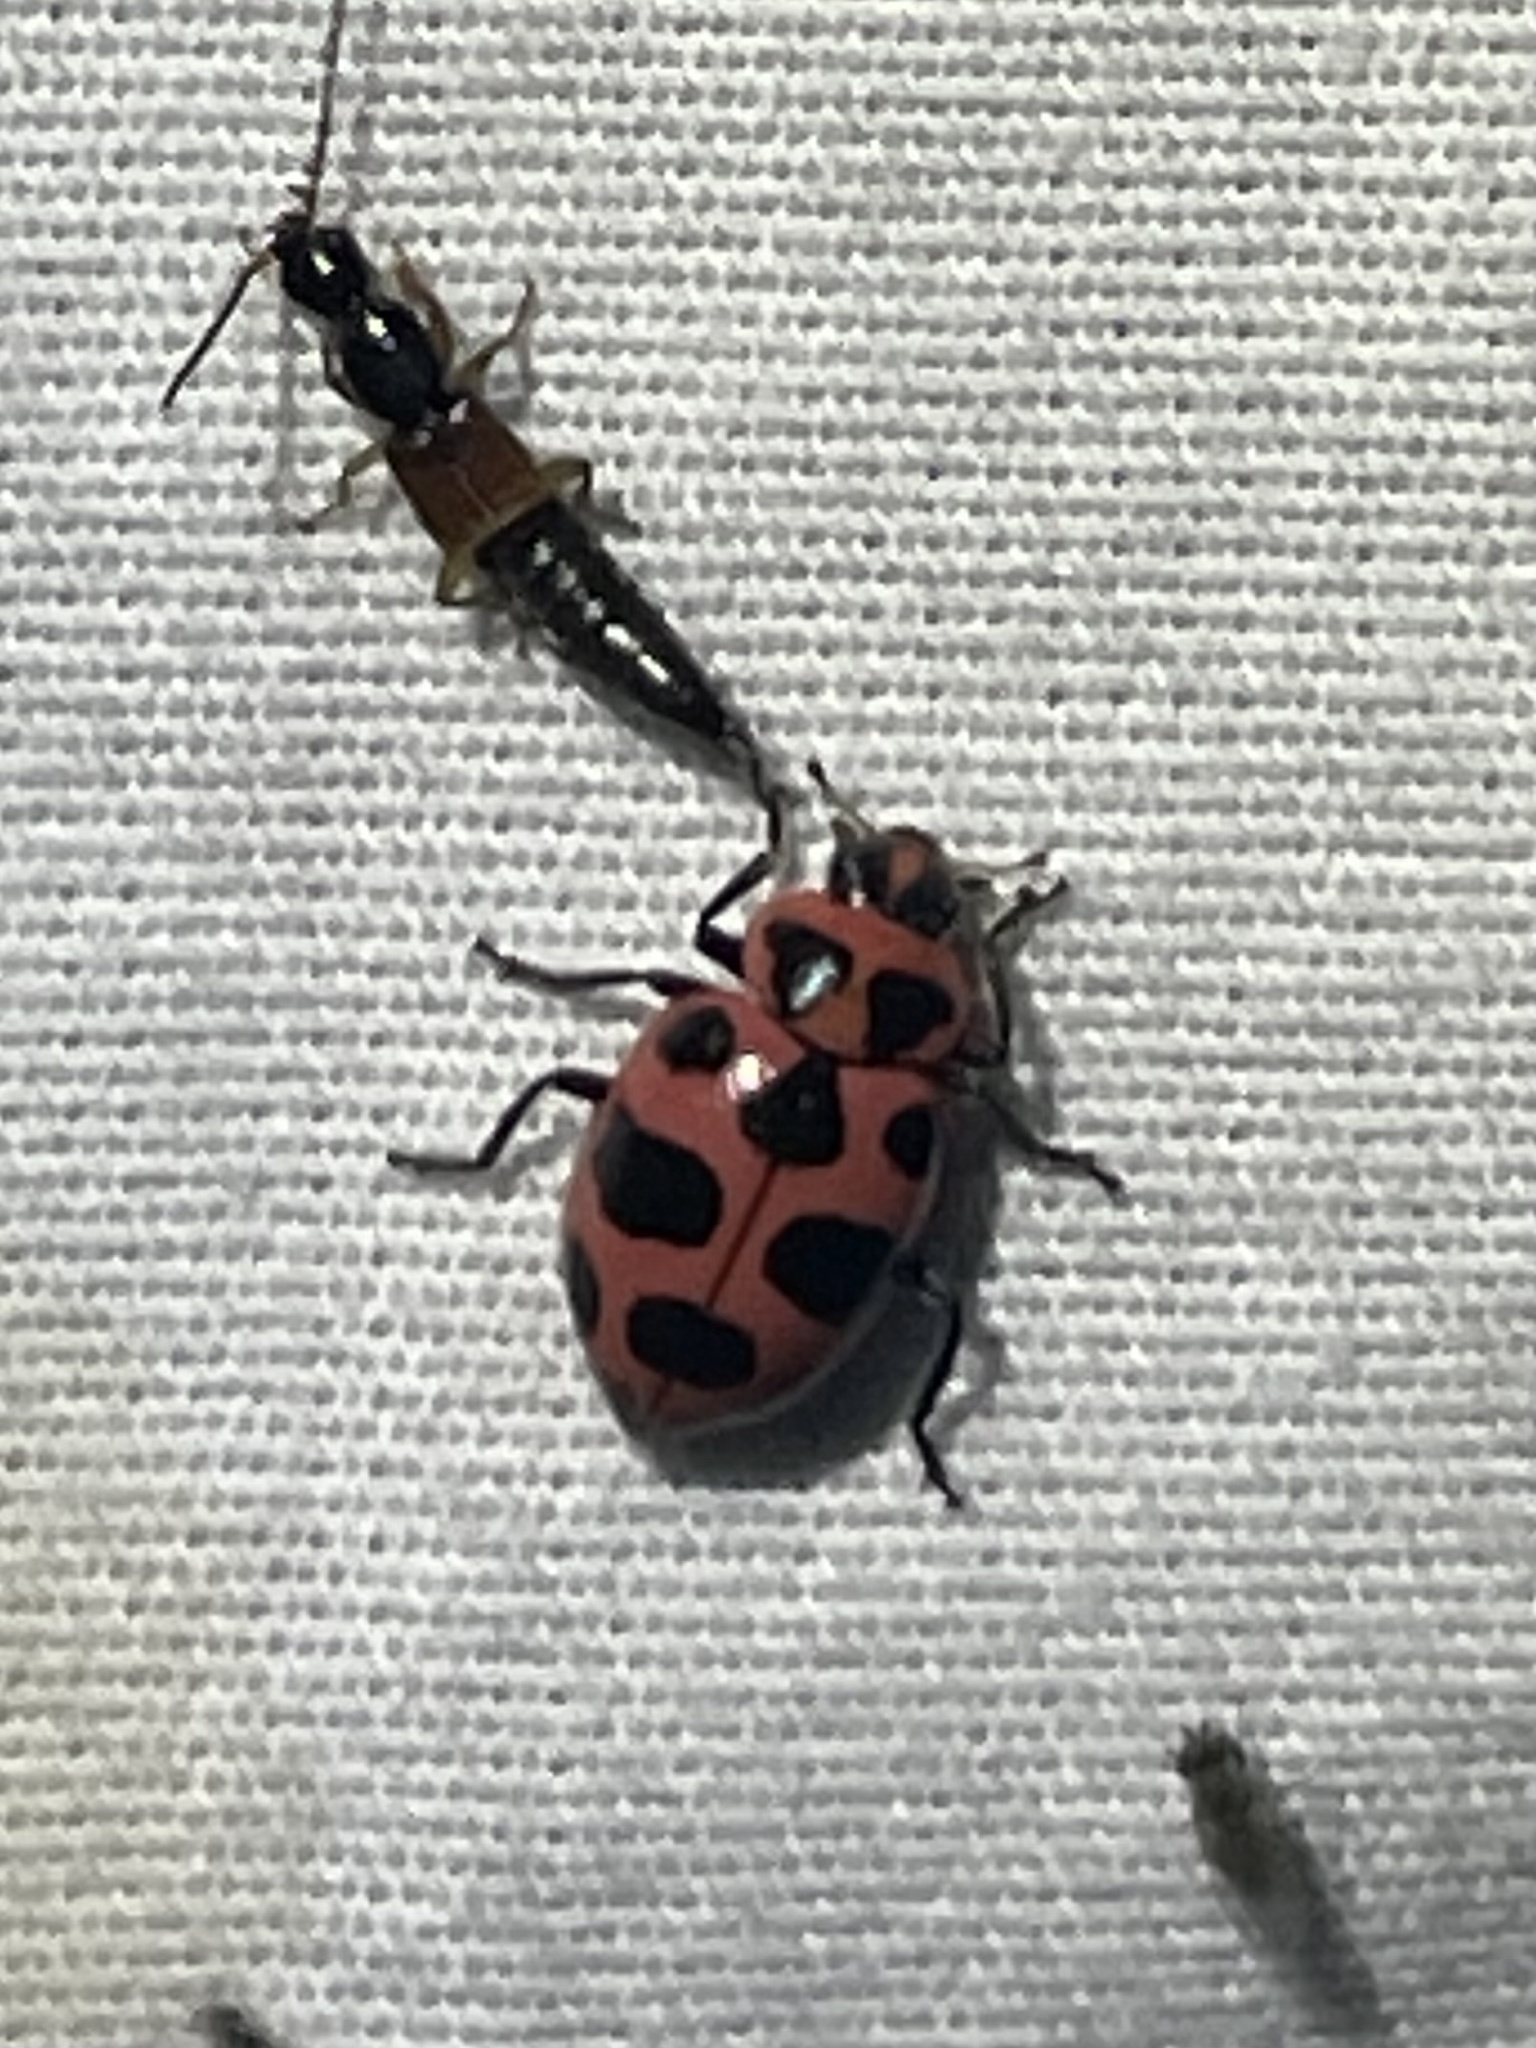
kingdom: Animalia
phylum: Arthropoda
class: Insecta
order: Coleoptera
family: Coccinellidae
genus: Coleomegilla
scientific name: Coleomegilla maculata
